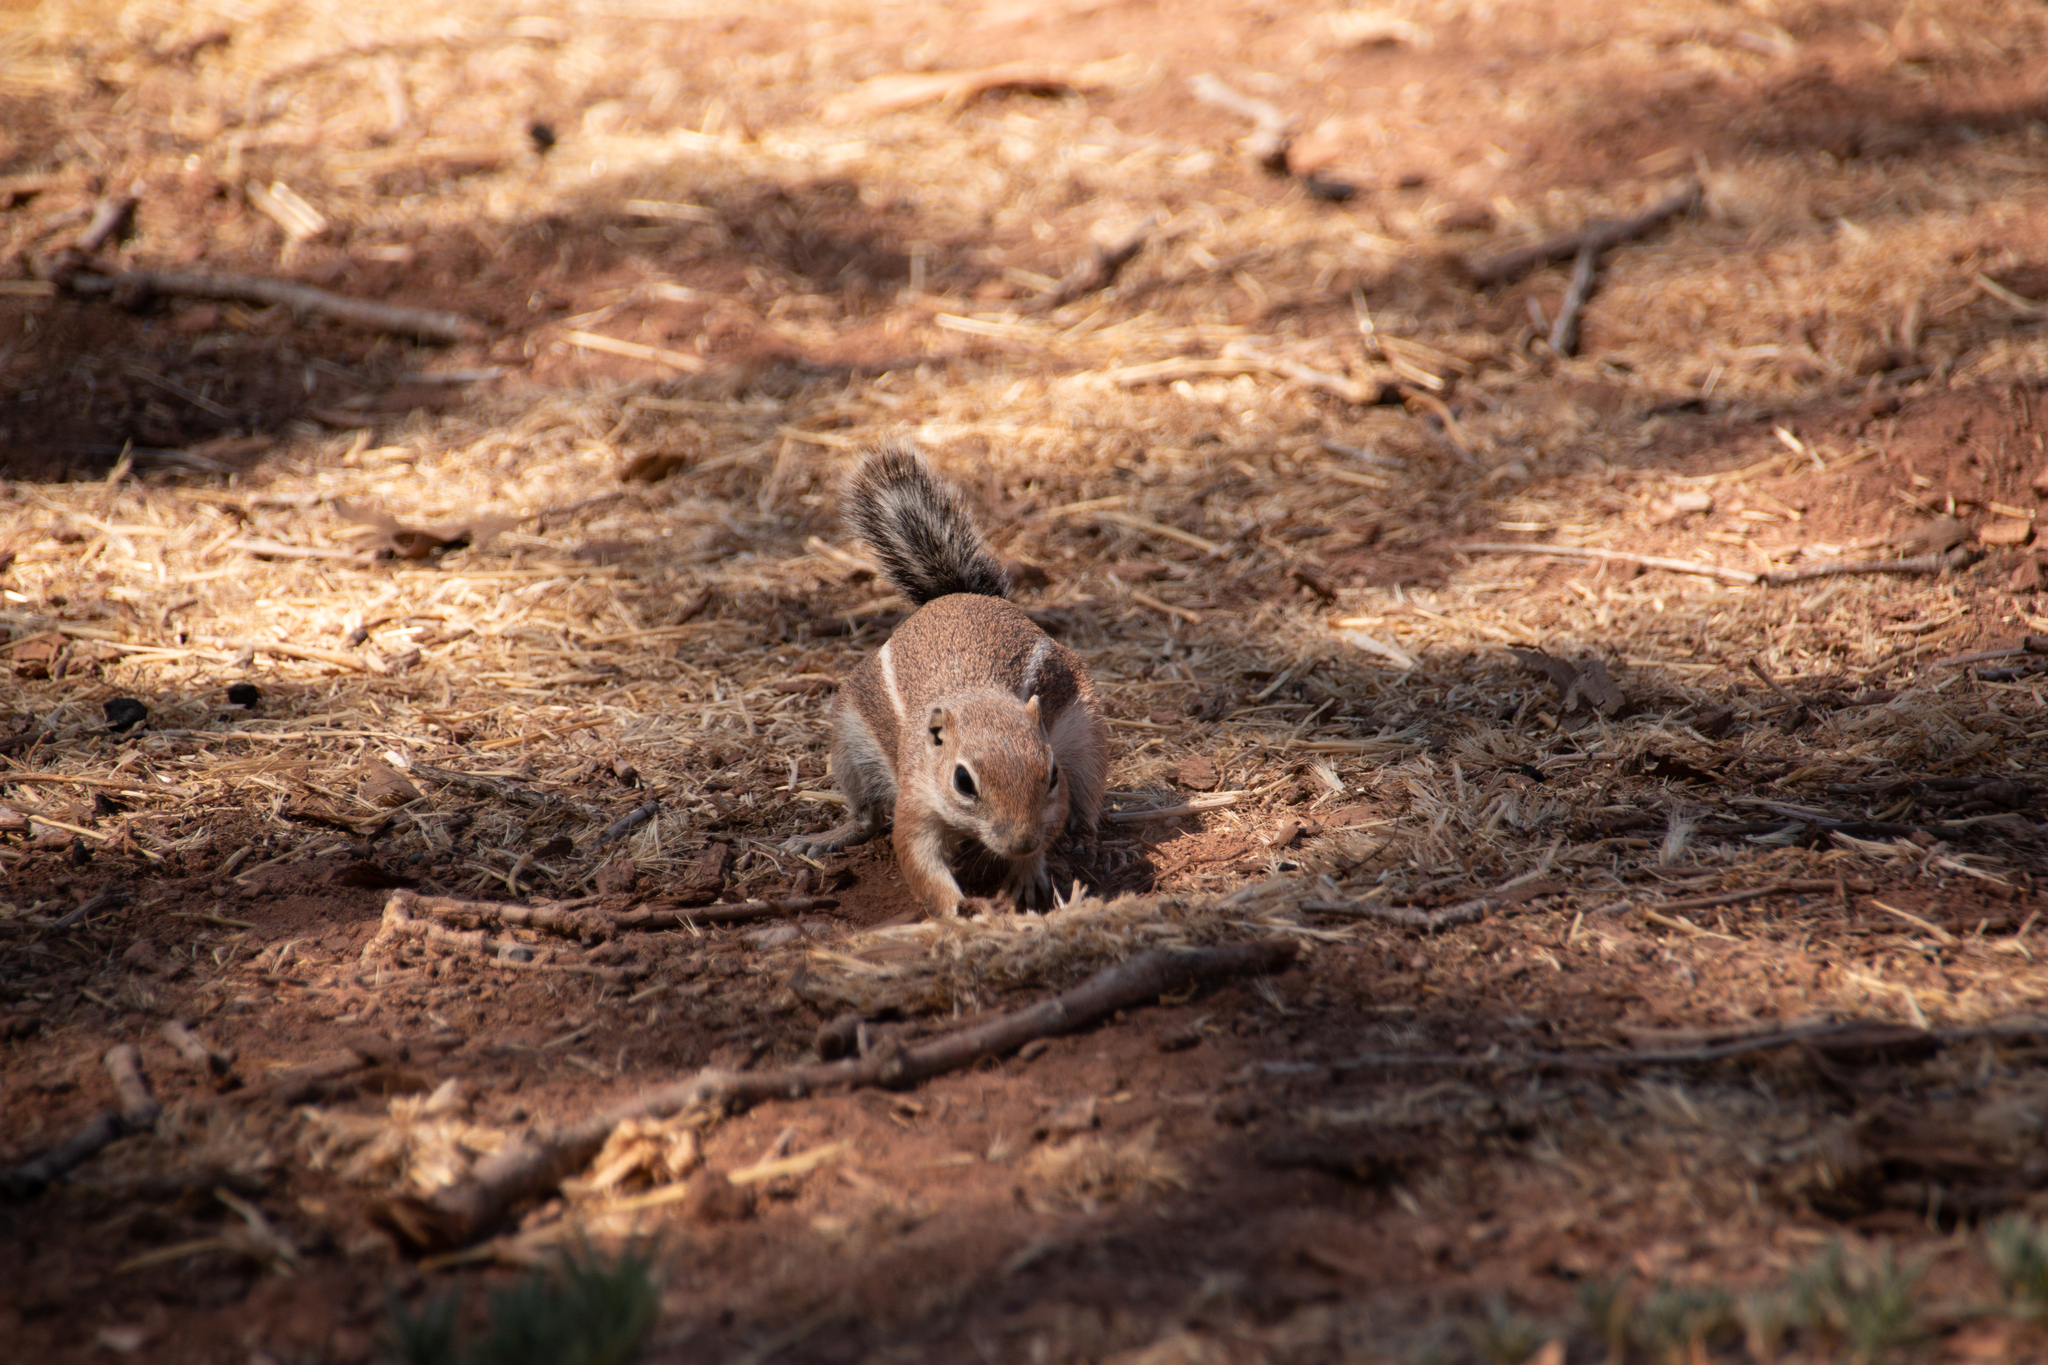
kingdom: Animalia
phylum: Chordata
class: Mammalia
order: Rodentia
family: Sciuridae
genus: Ammospermophilus
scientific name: Ammospermophilus leucurus
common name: White-tailed antelope squirrel
